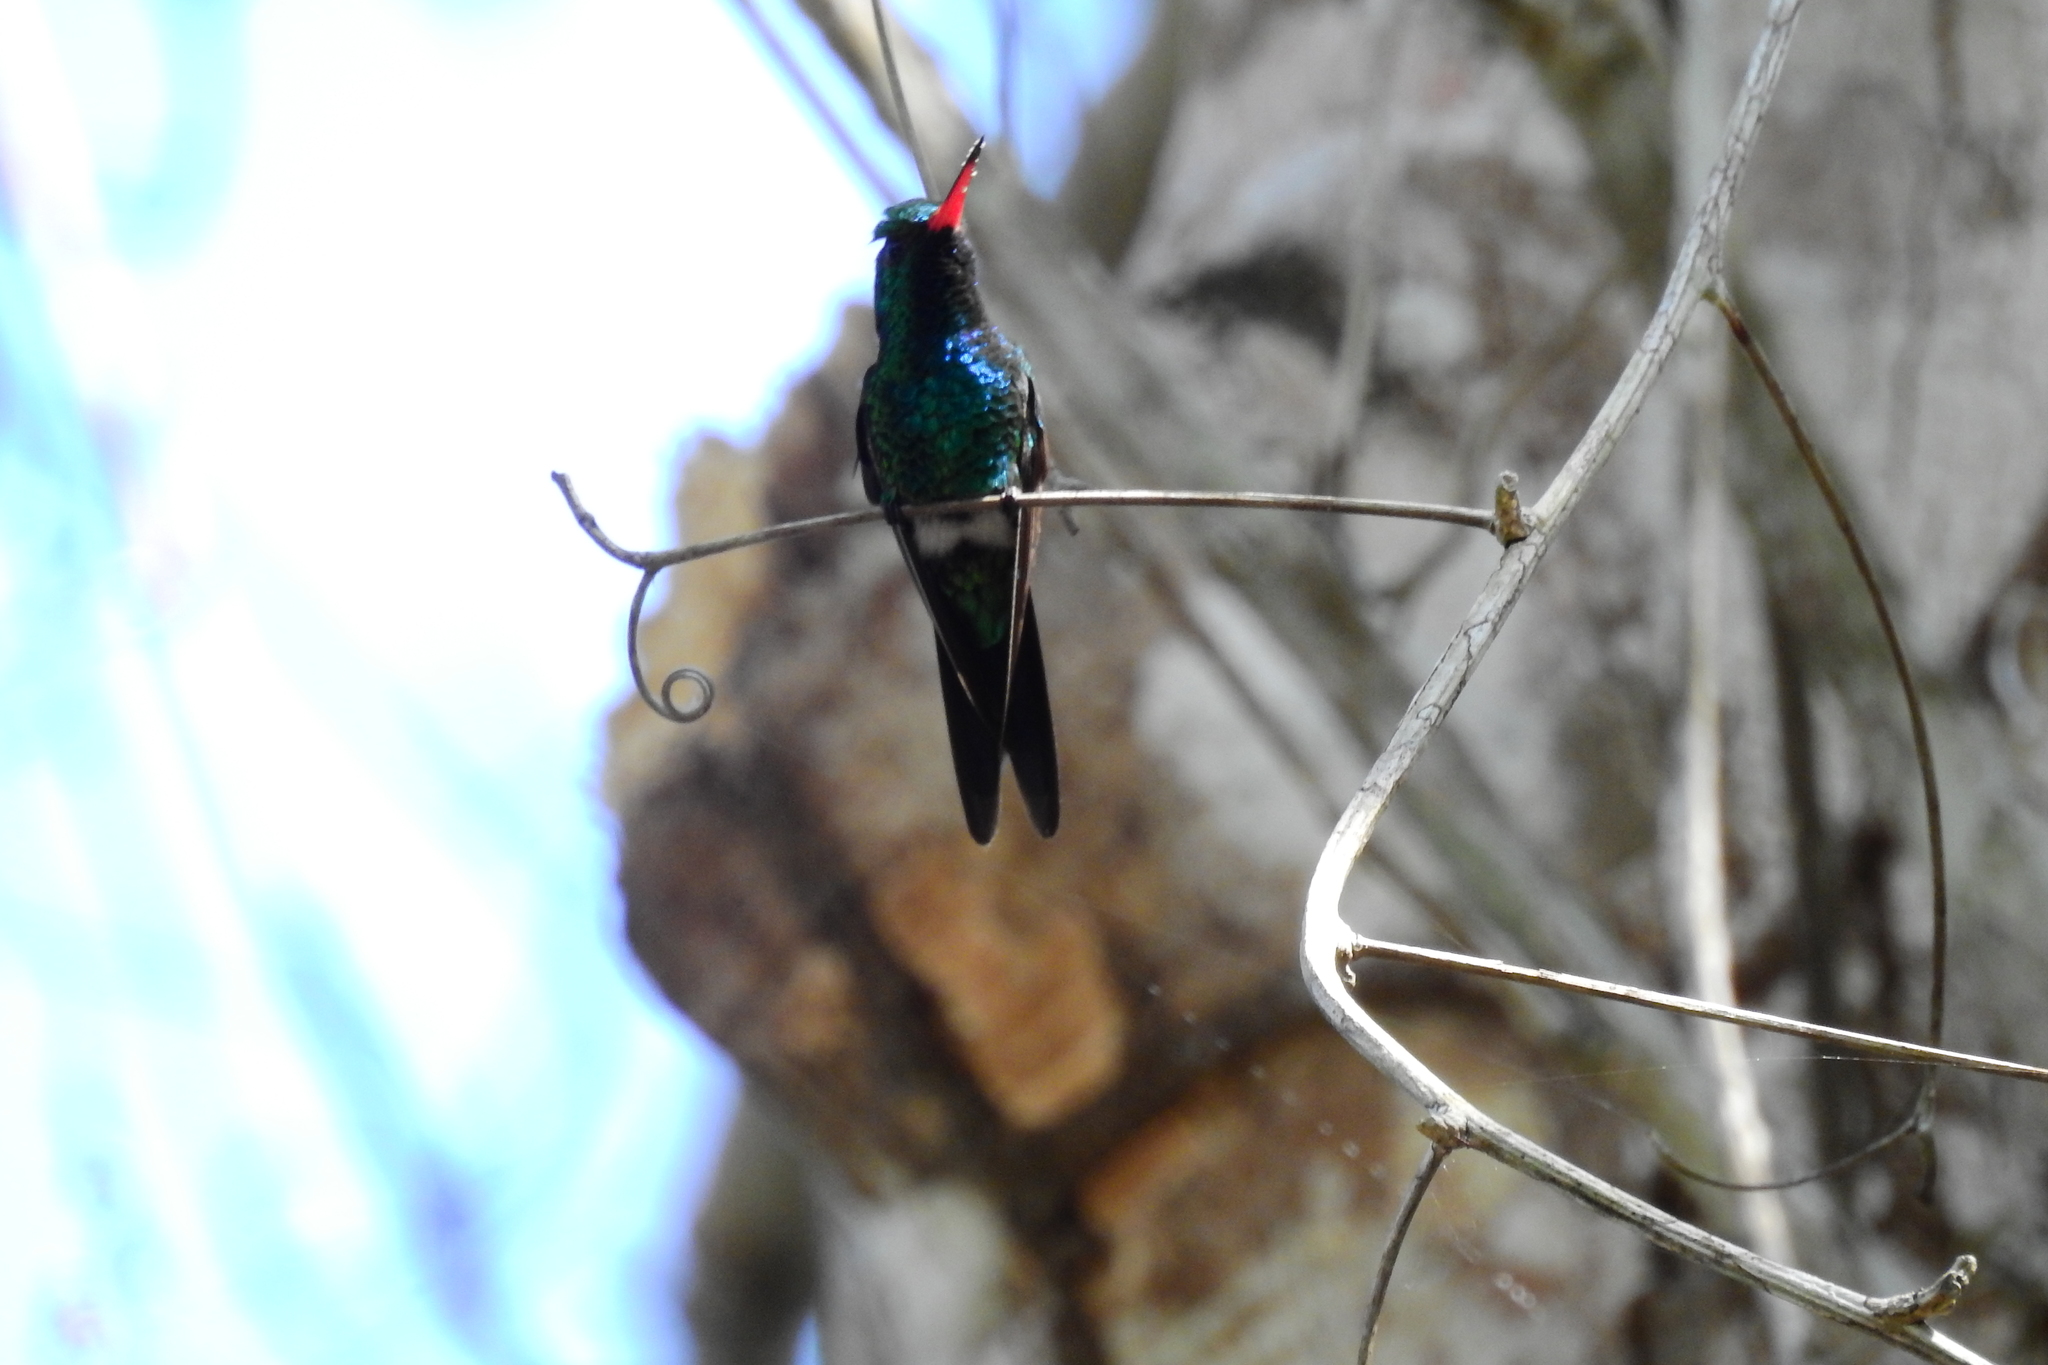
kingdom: Animalia
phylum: Chordata
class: Aves
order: Apodiformes
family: Trochilidae
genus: Cynanthus
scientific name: Cynanthus canivetii
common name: Canivet's emerald
